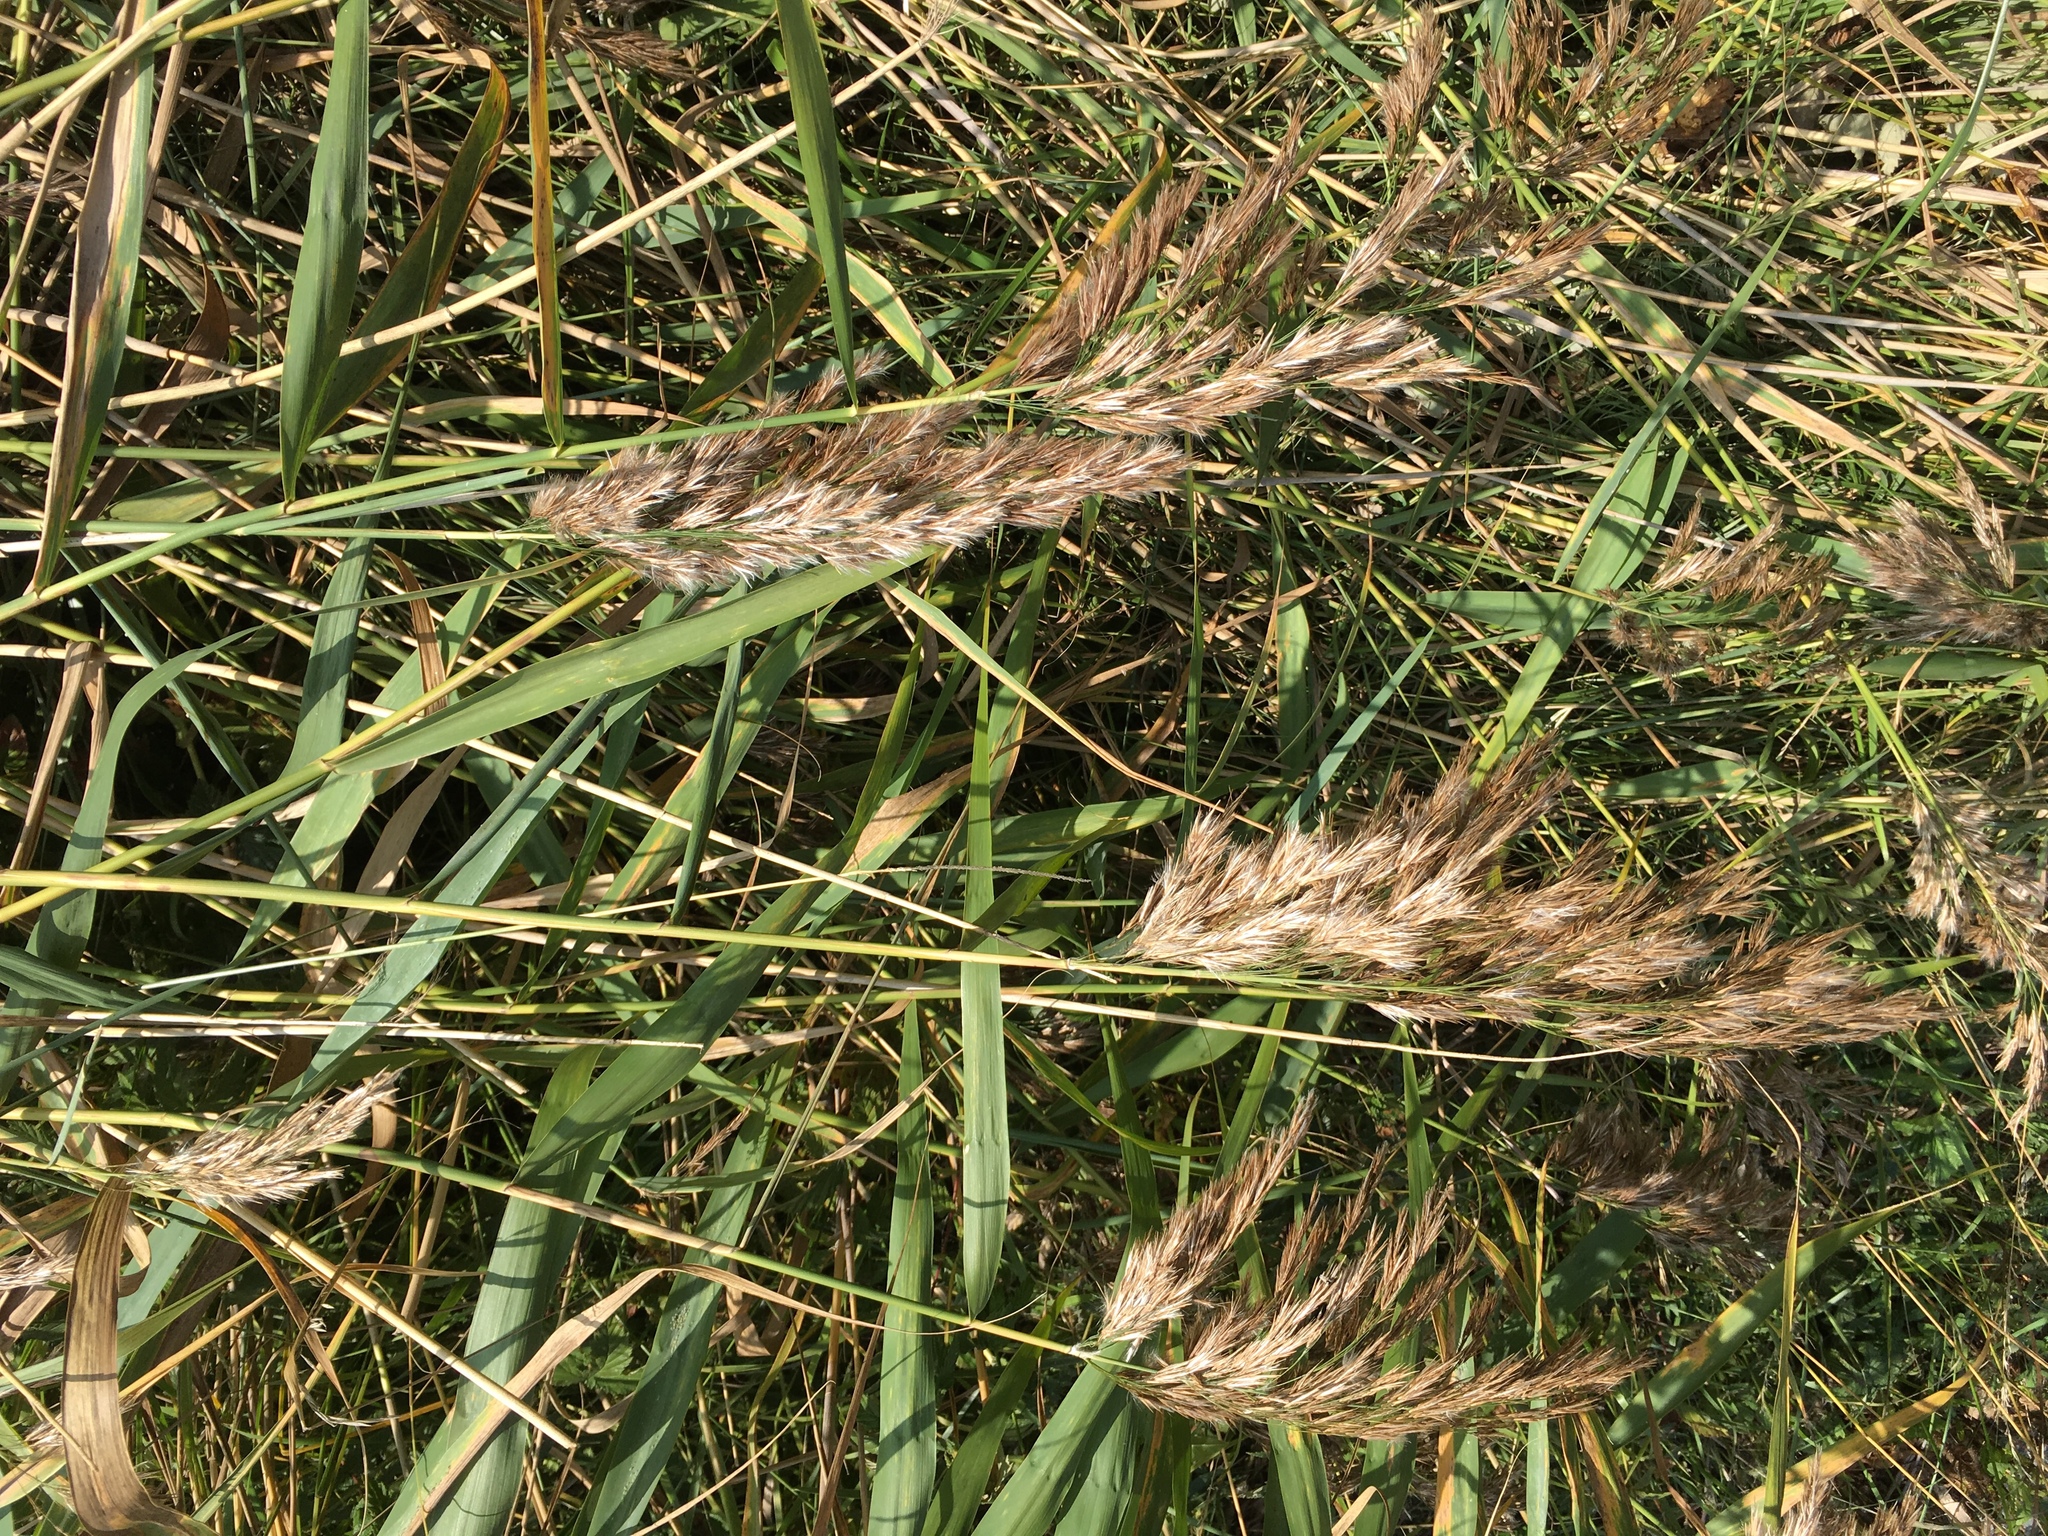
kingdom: Plantae
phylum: Tracheophyta
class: Liliopsida
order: Poales
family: Poaceae
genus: Phragmites
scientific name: Phragmites australis
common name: Common reed
